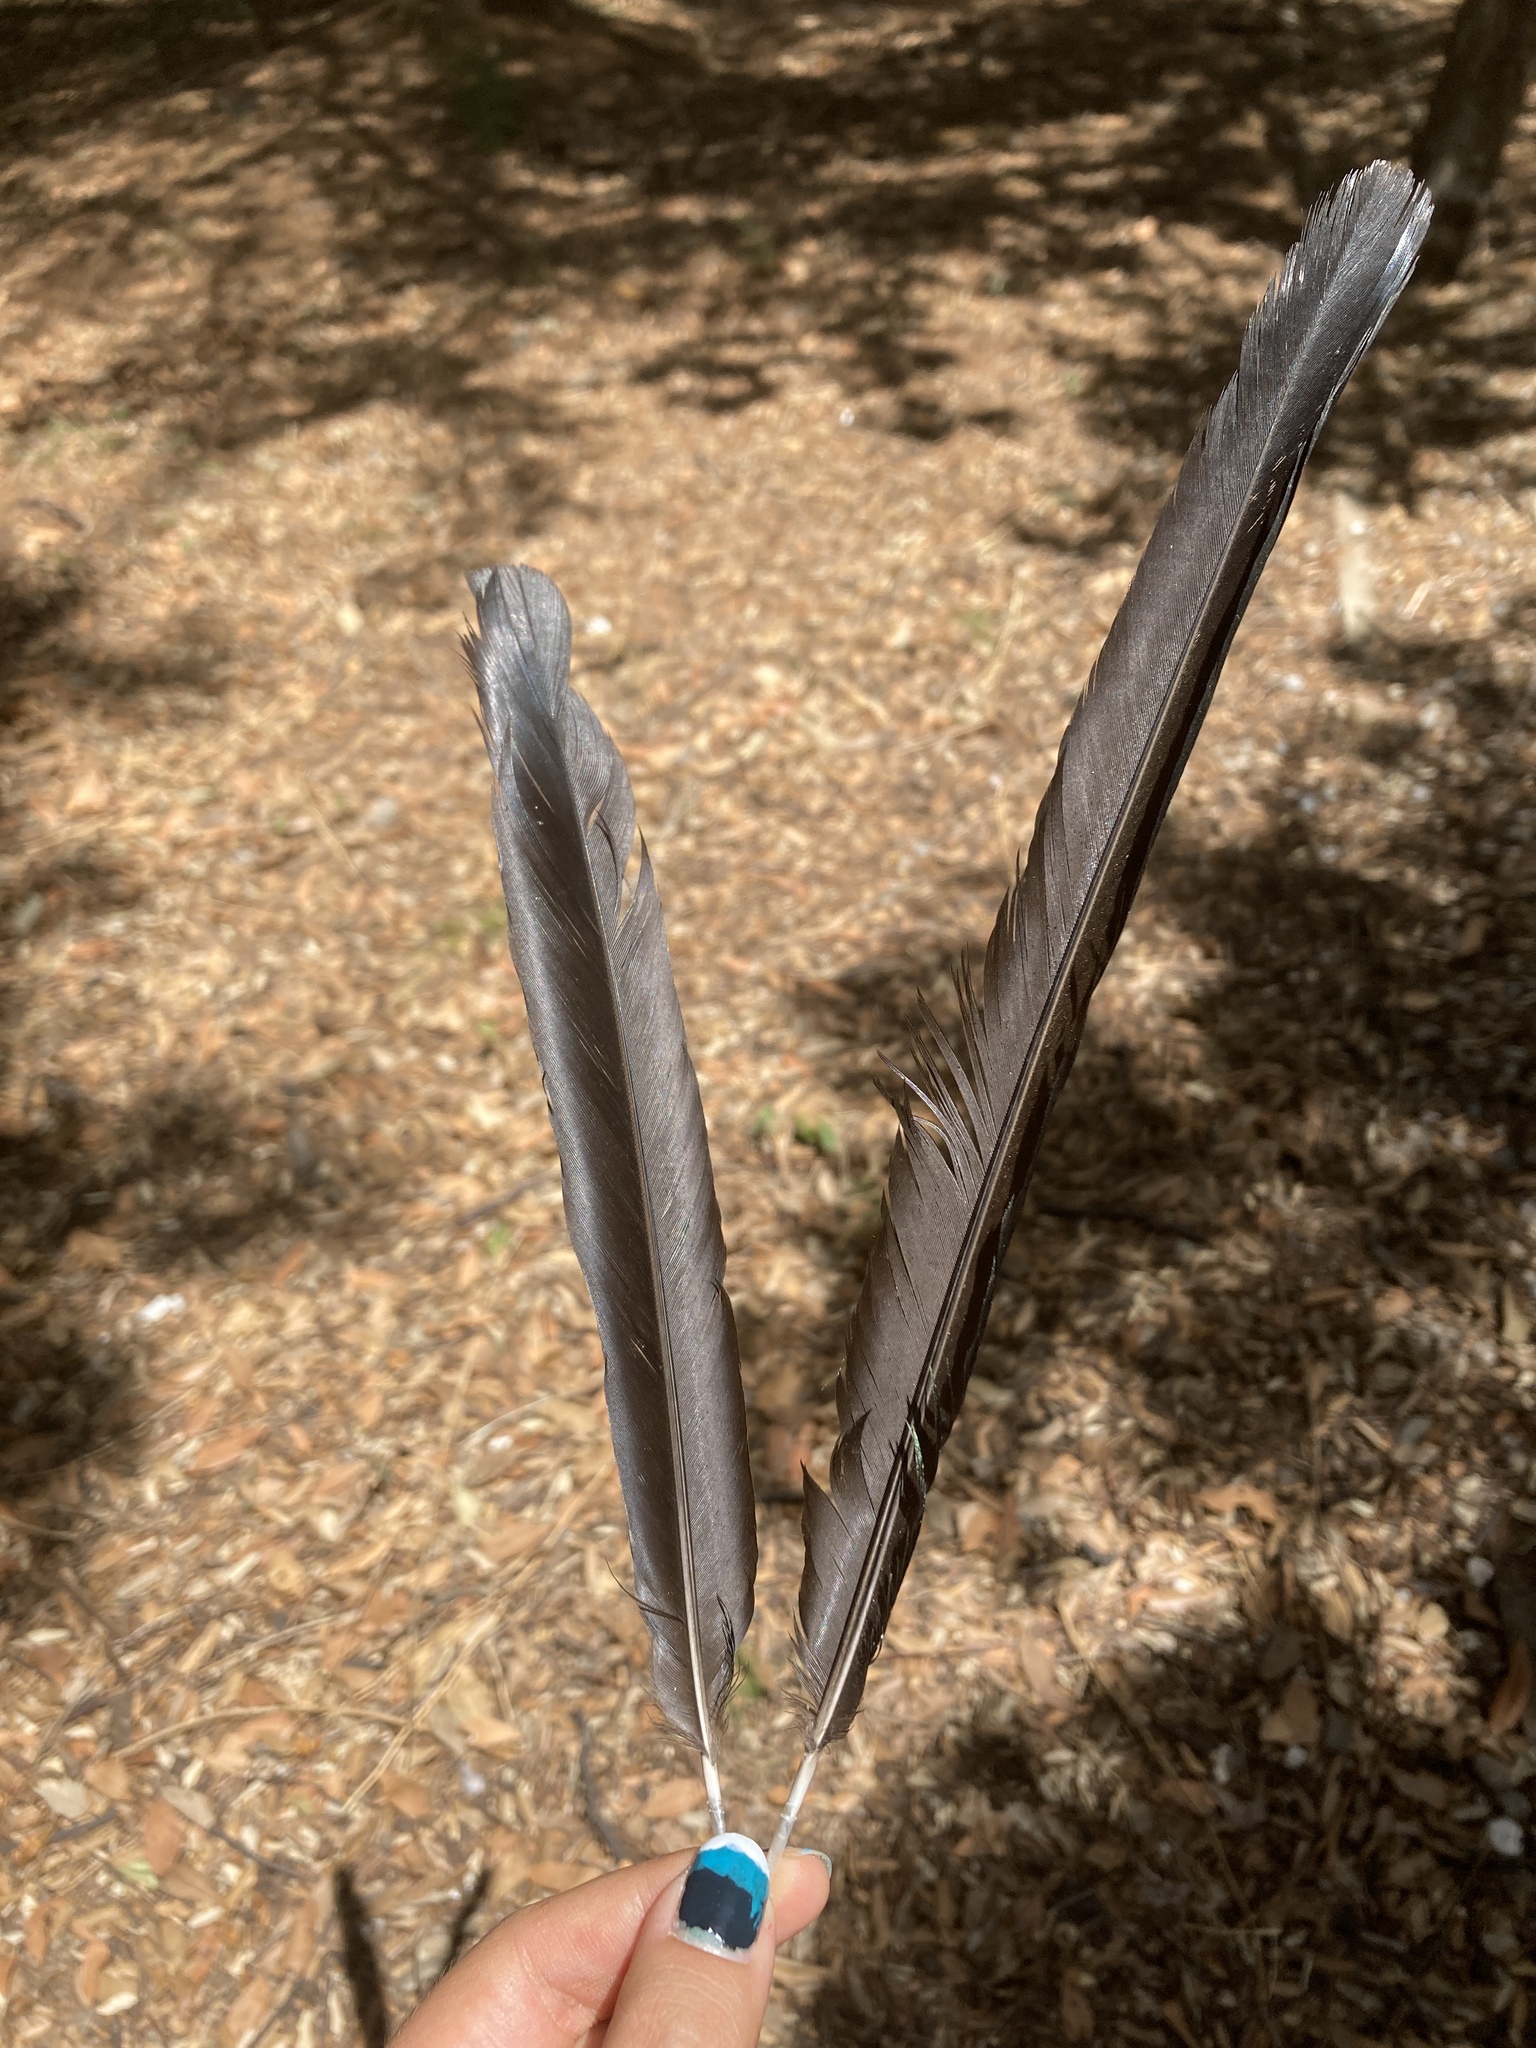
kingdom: Animalia
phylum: Chordata
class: Aves
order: Passeriformes
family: Corvidae
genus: Pica
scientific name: Pica pica
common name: Eurasian magpie
